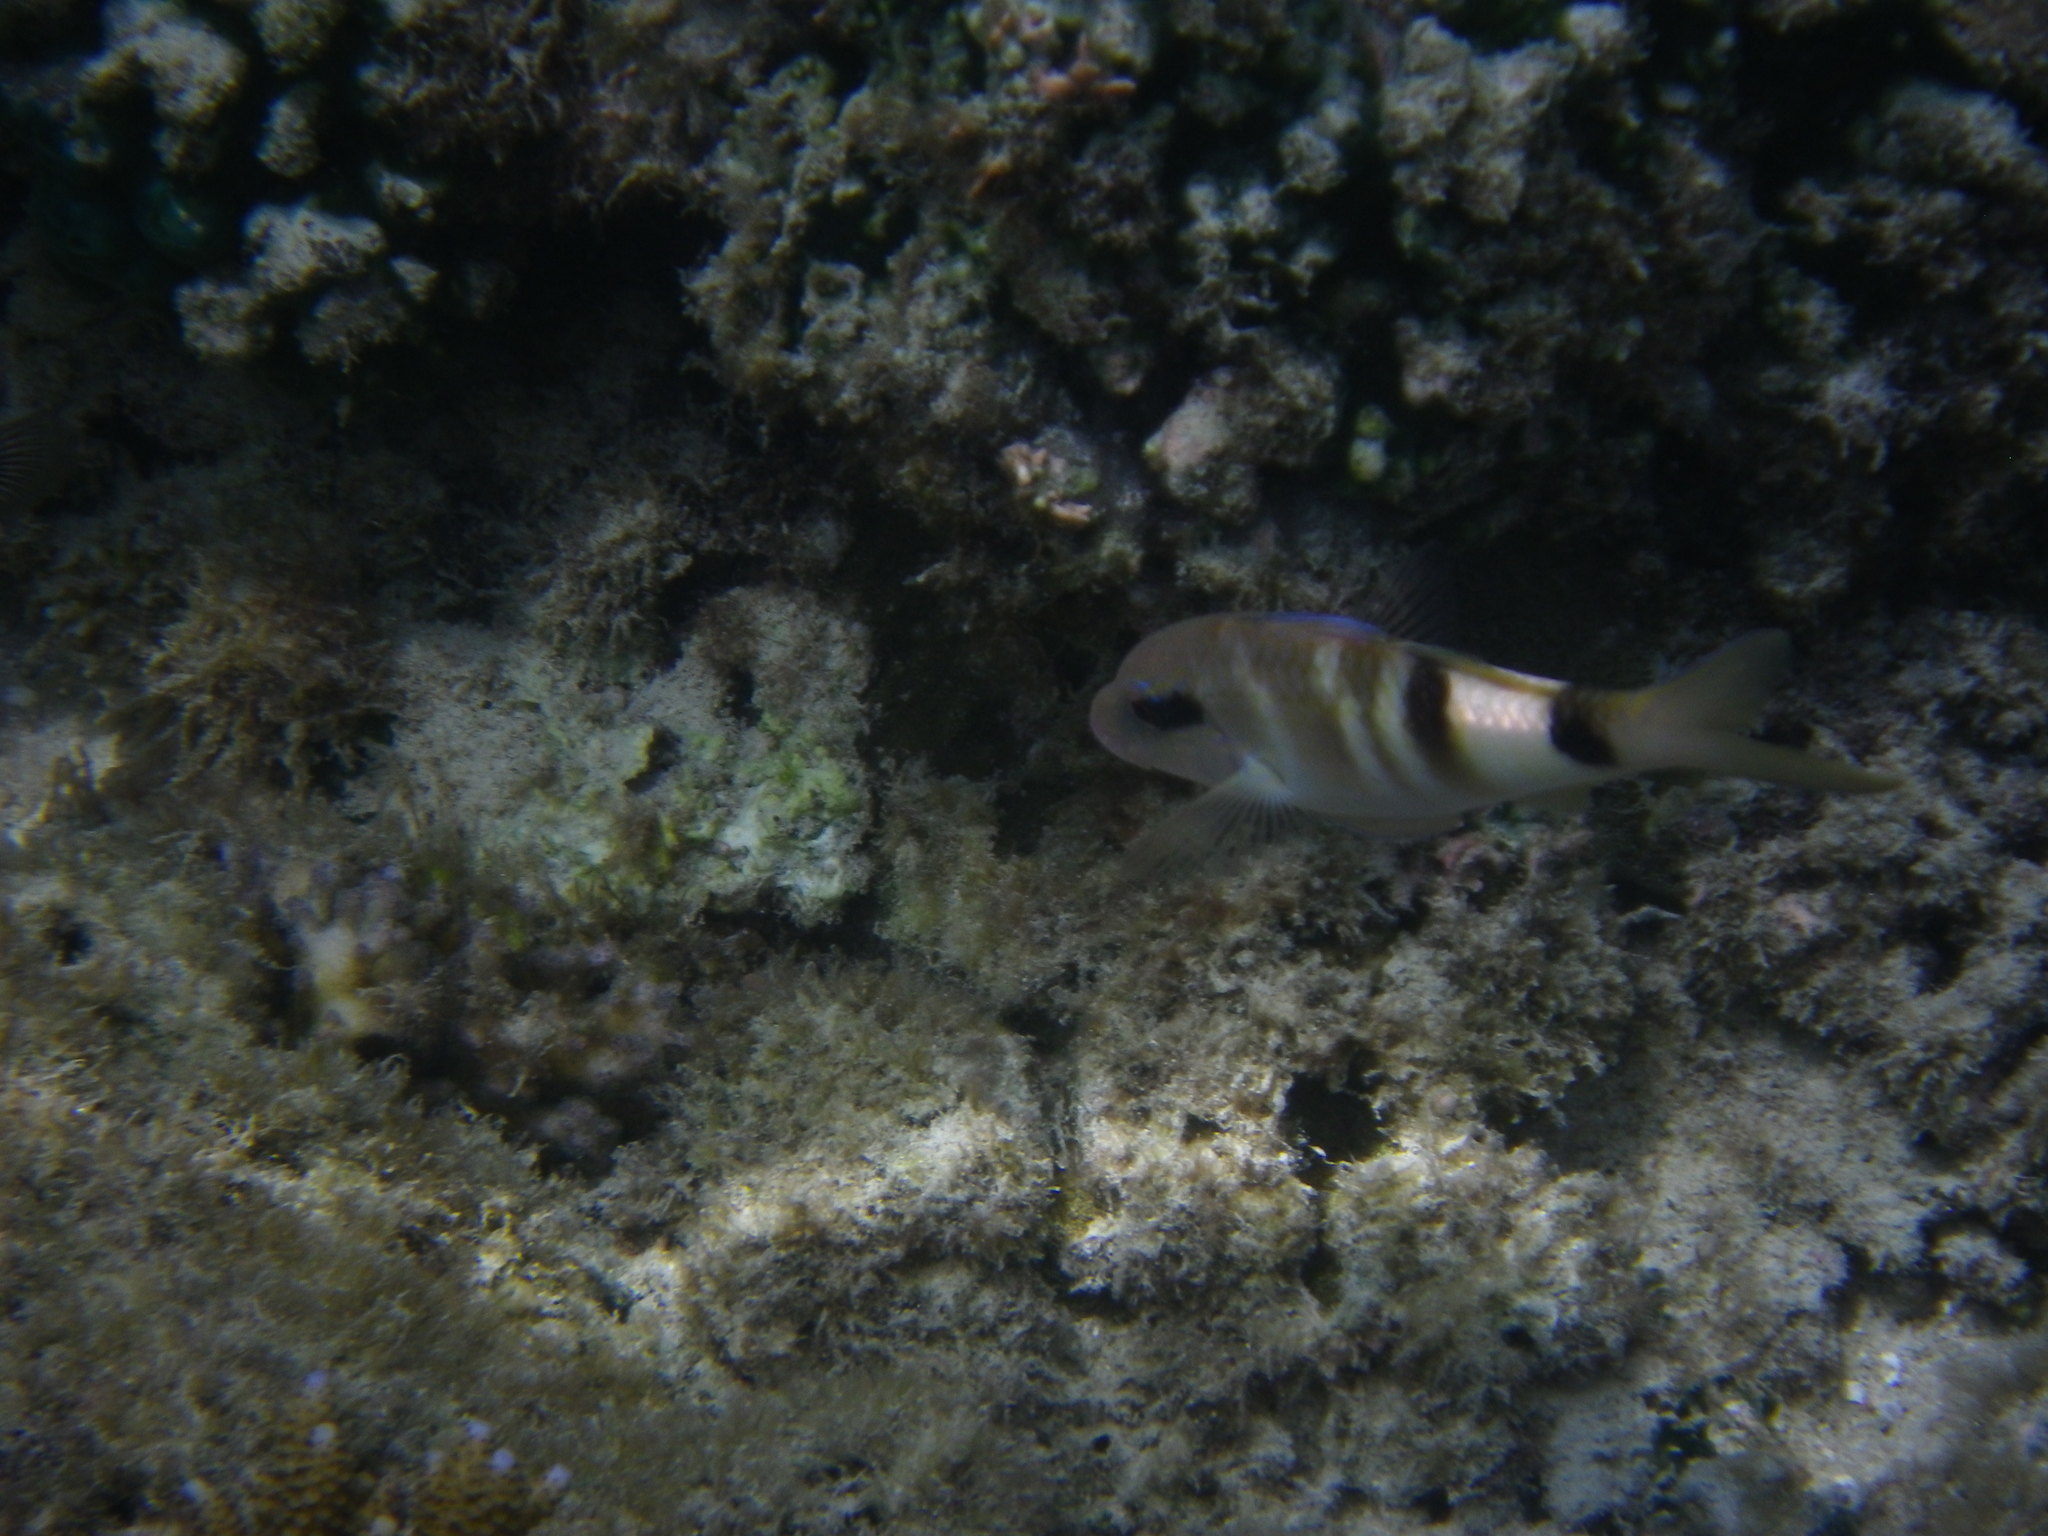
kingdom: Animalia
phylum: Chordata
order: Perciformes
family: Mullidae
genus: Parupeneus
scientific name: Parupeneus multifasciatus
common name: Manybar goatfish
